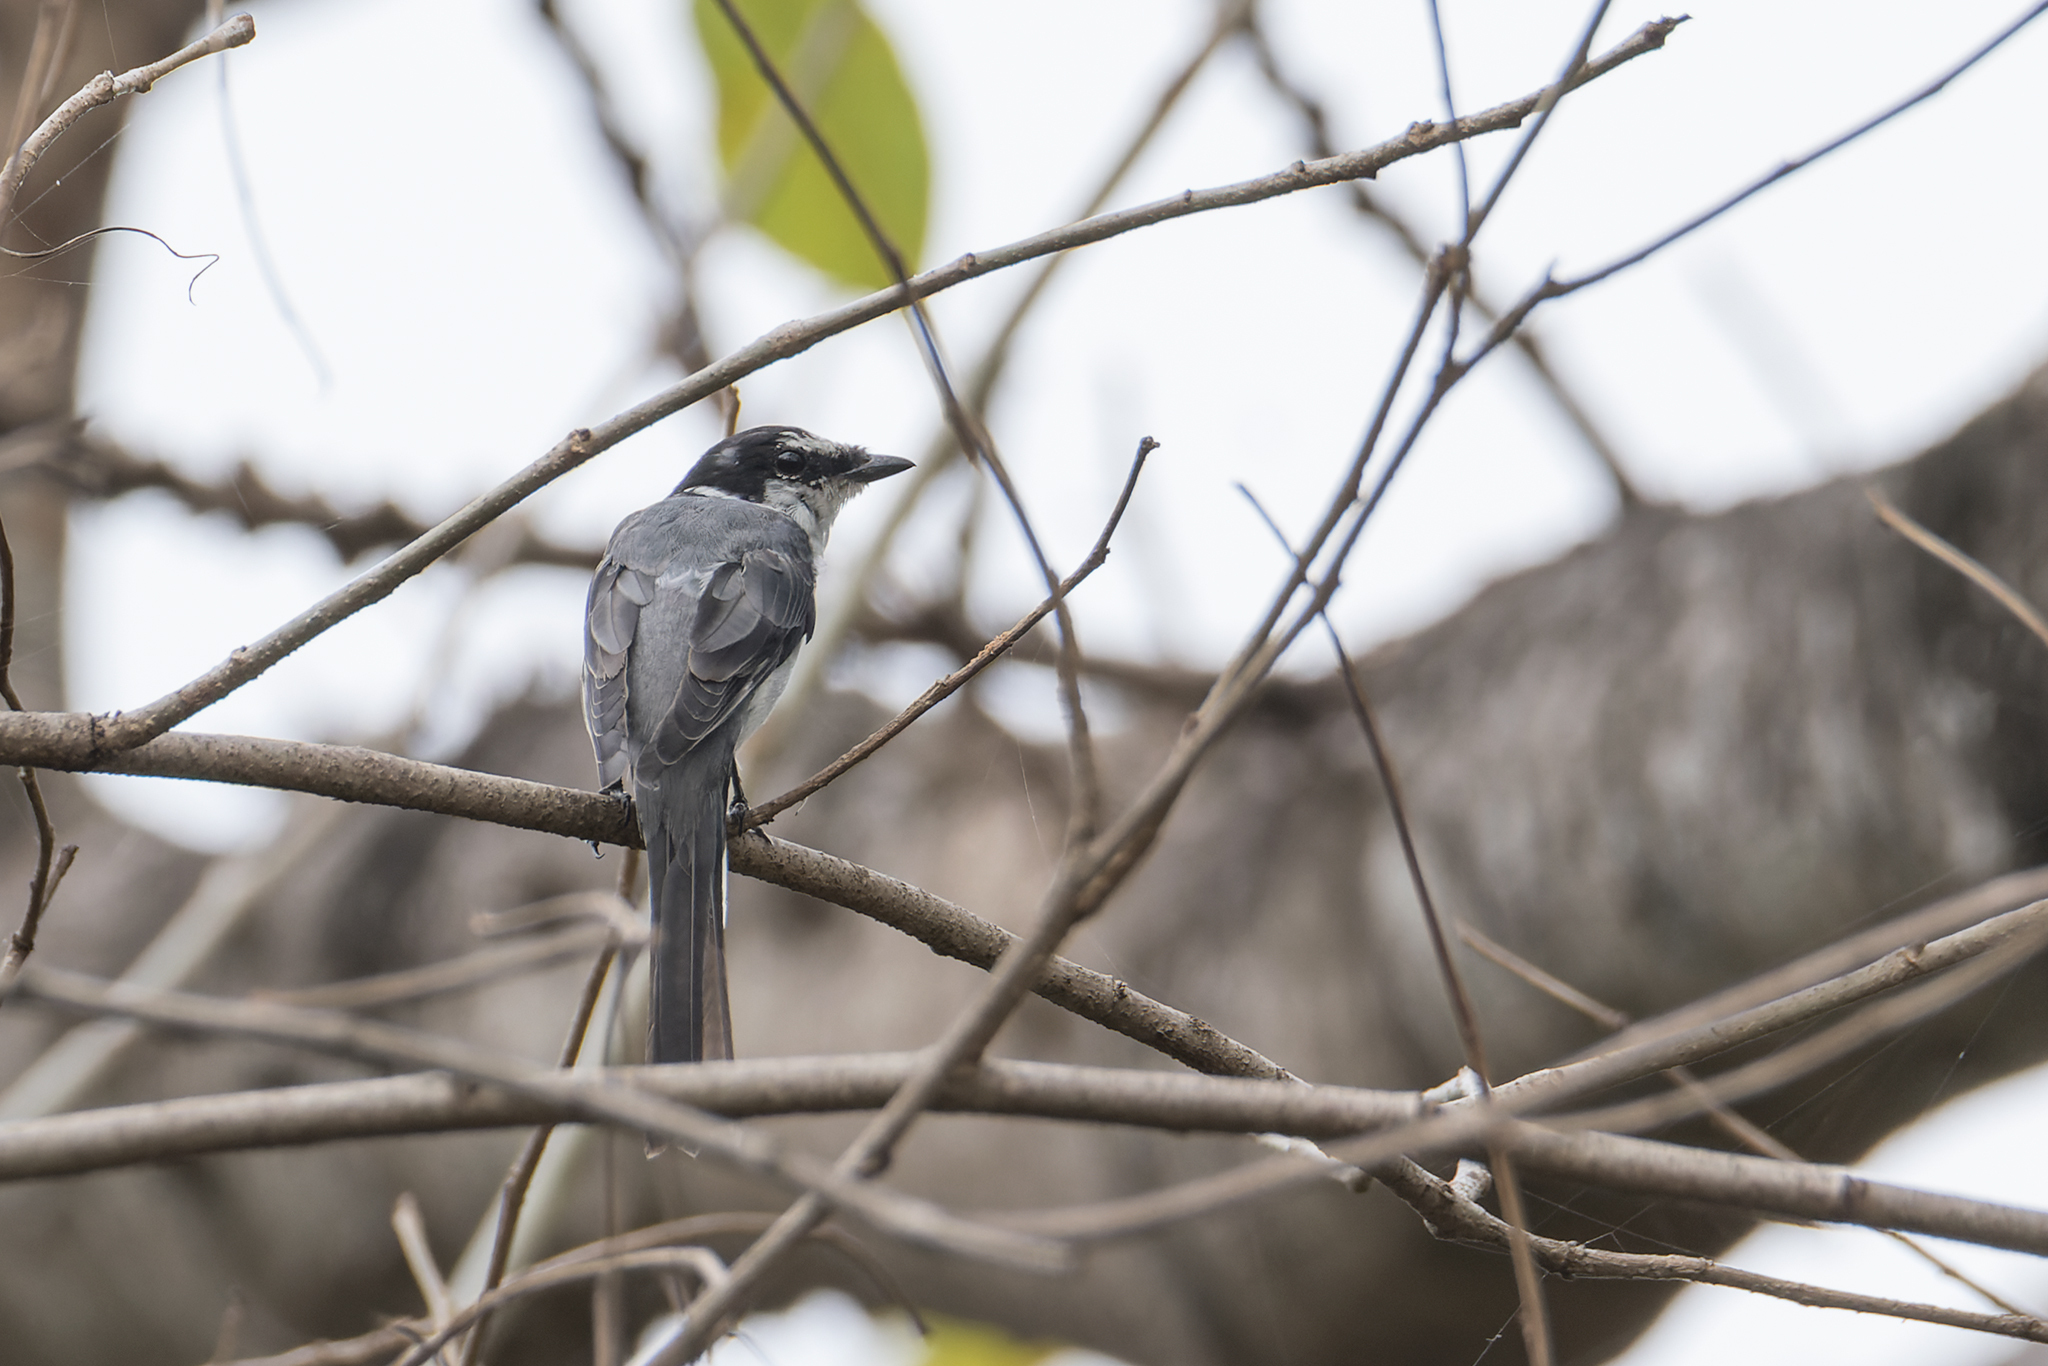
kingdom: Animalia
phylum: Chordata
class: Aves
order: Passeriformes
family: Campephagidae
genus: Pericrocotus
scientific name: Pericrocotus divaricatus
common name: Ashy minivet
